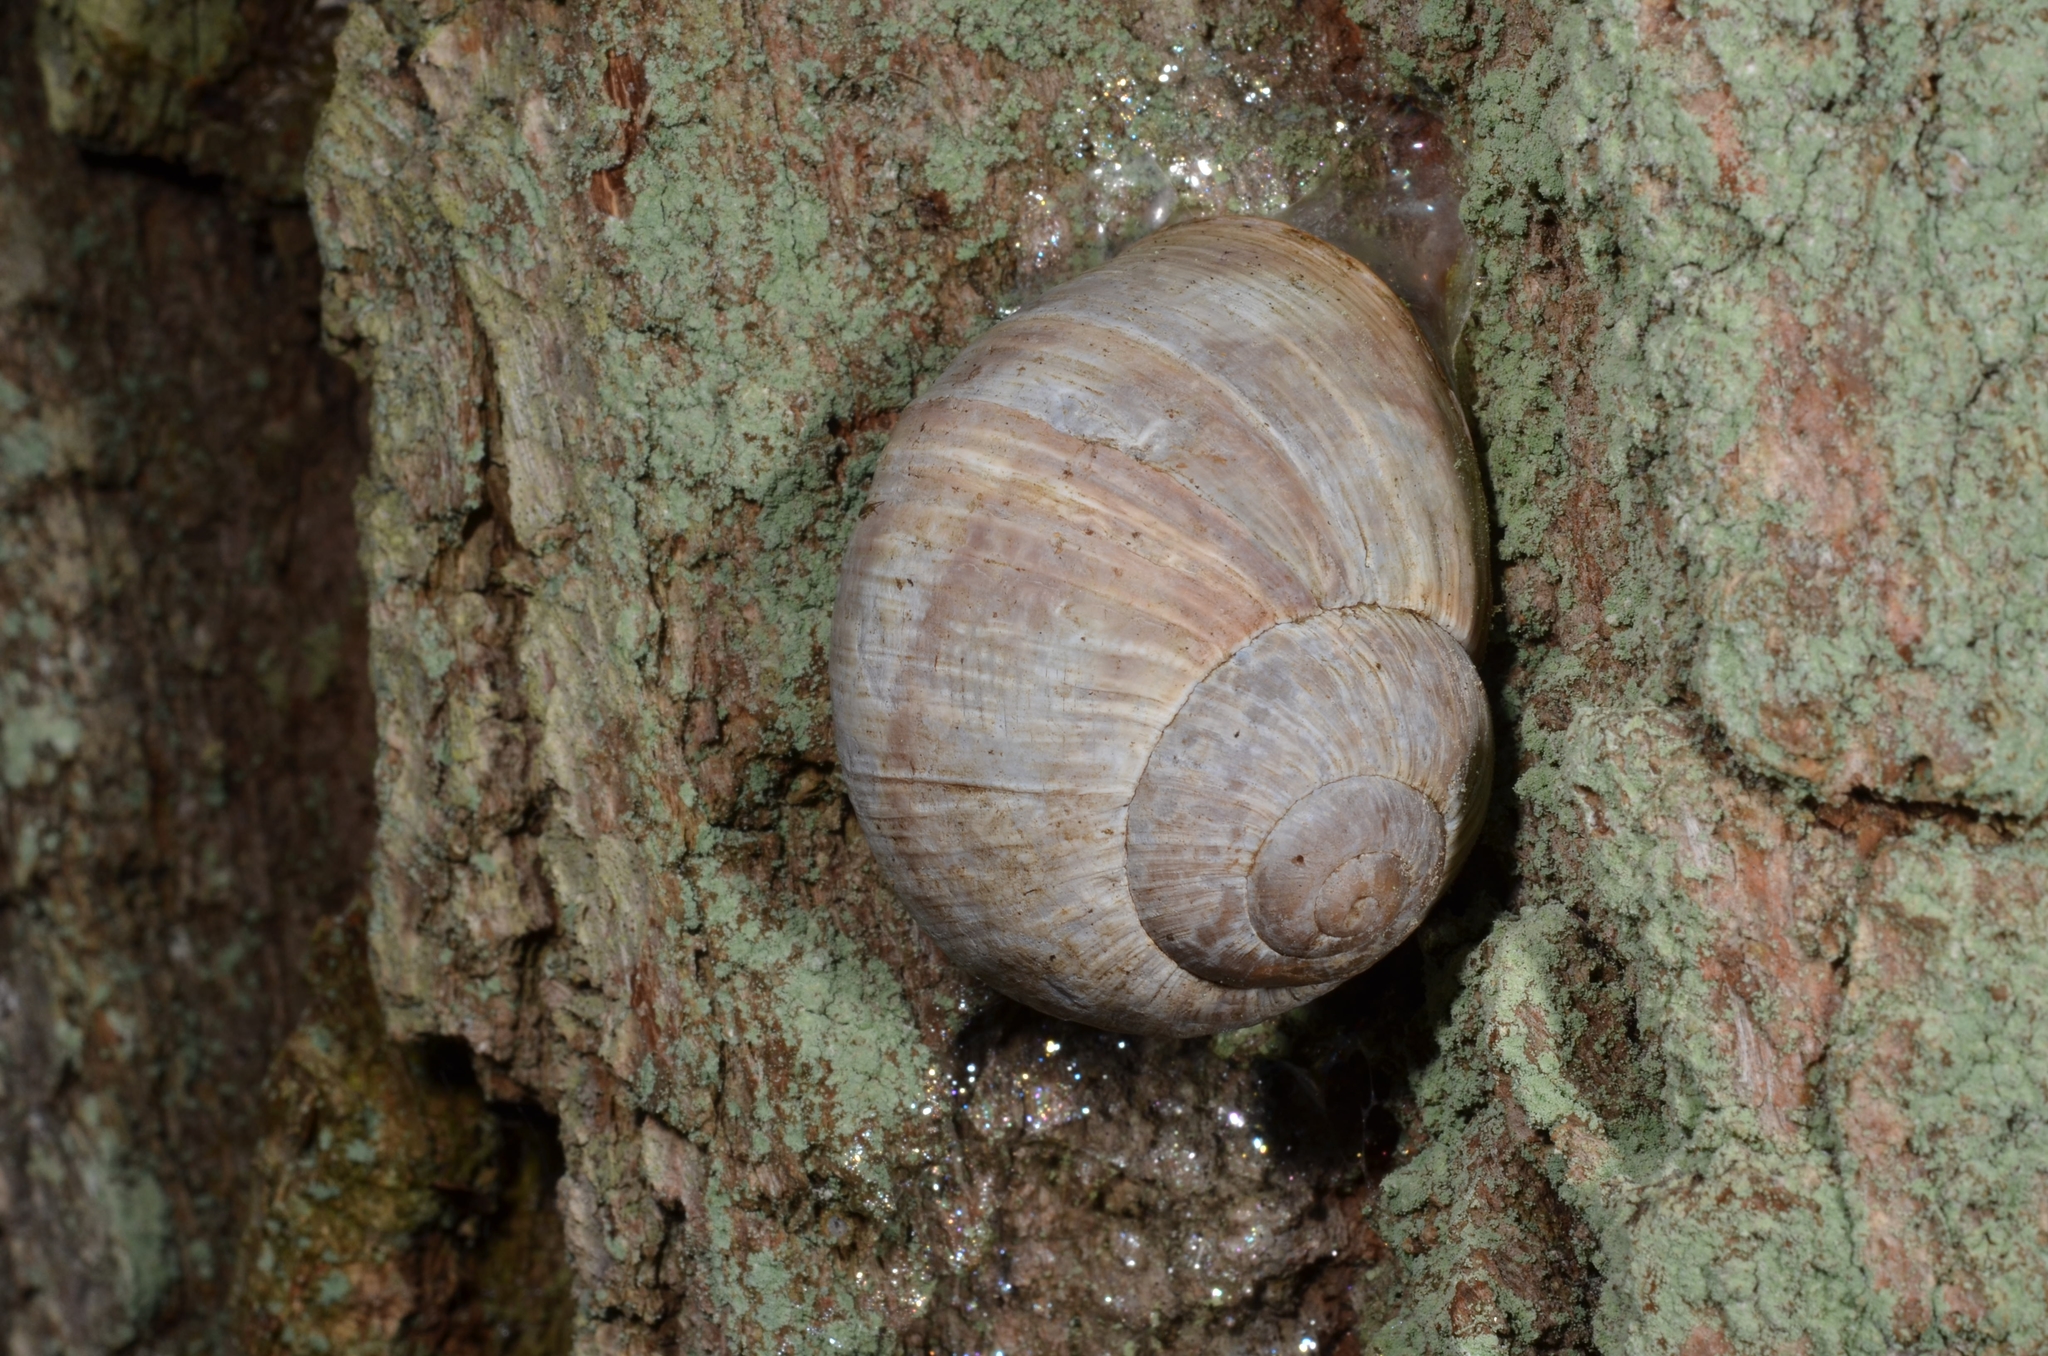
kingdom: Animalia
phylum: Mollusca
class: Gastropoda
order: Stylommatophora
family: Helicidae
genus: Helix
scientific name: Helix pomatia
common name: Roman snail
